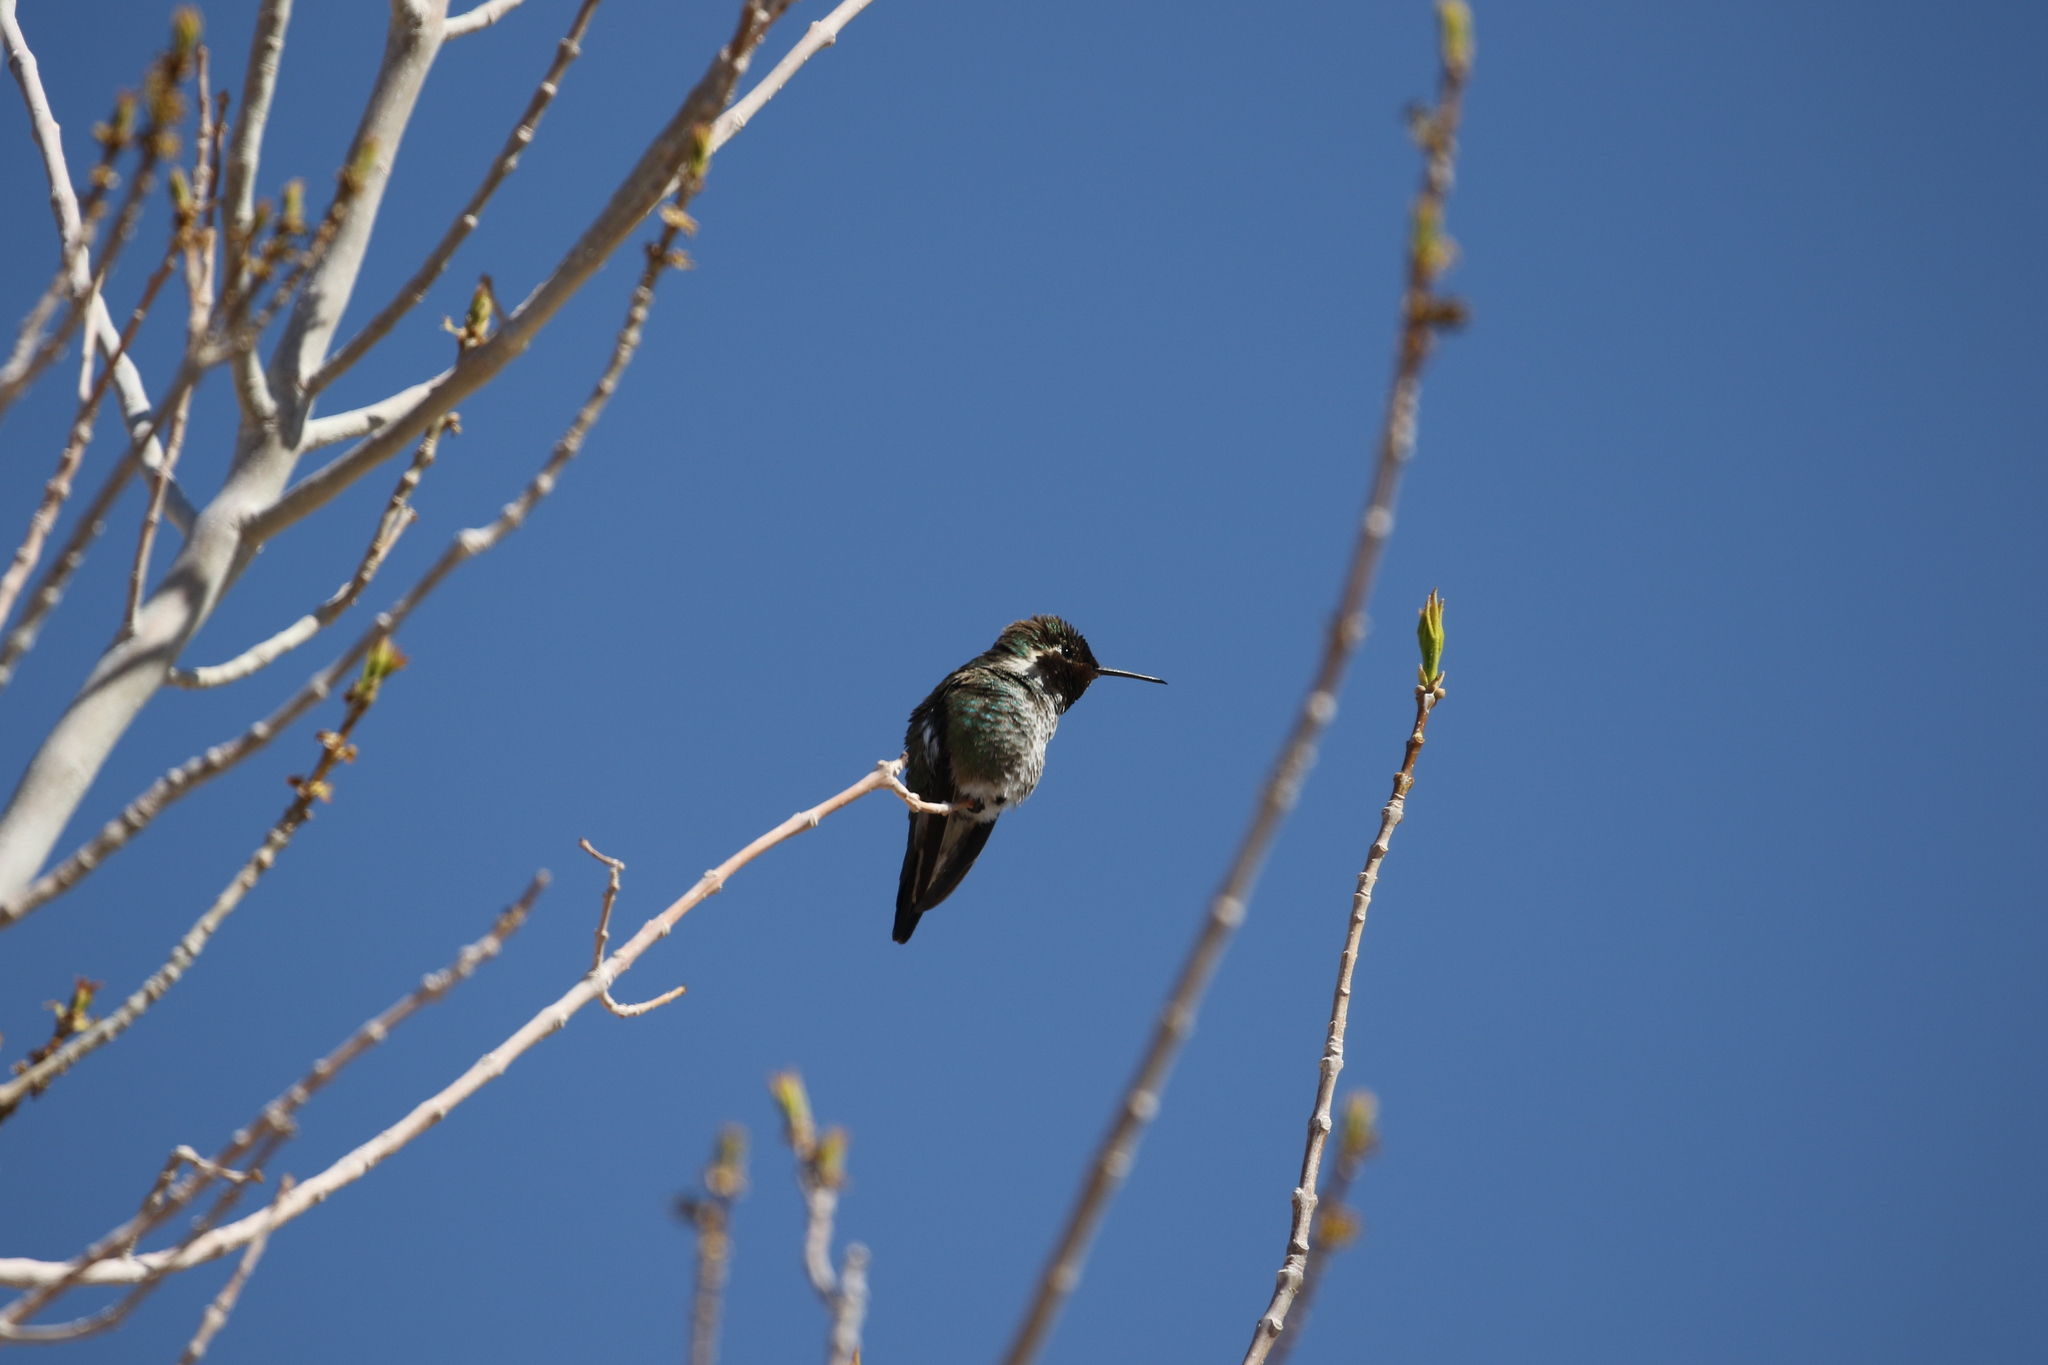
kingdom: Animalia
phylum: Chordata
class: Aves
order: Apodiformes
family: Trochilidae
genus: Calypte
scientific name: Calypte anna
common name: Anna's hummingbird
